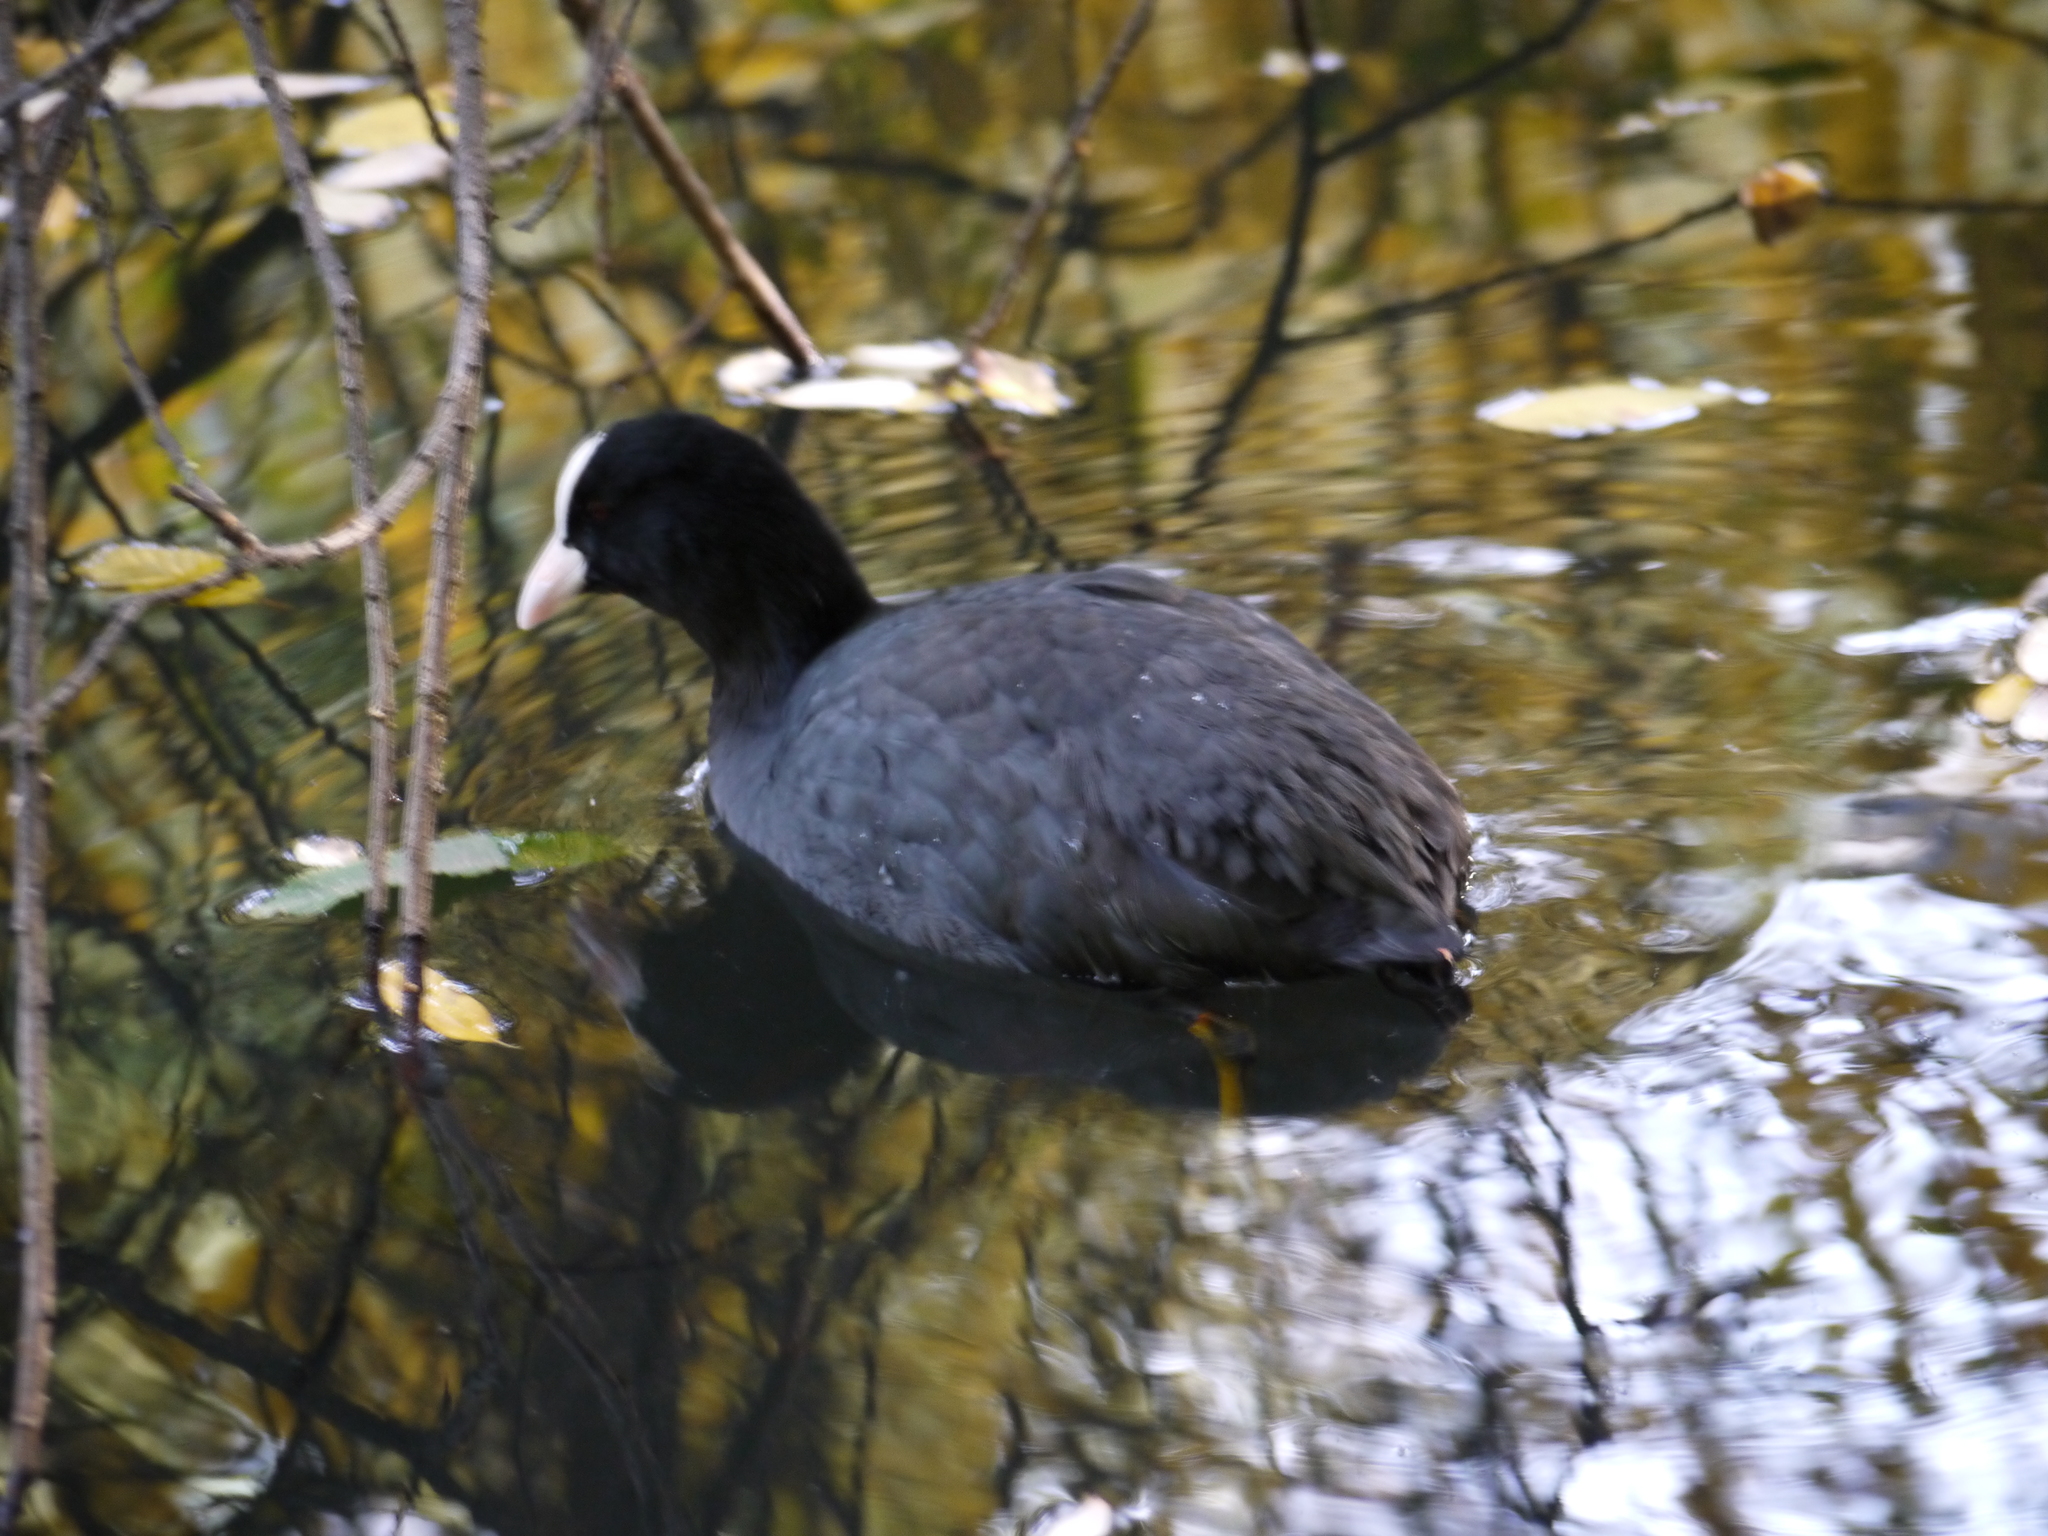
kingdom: Animalia
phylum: Chordata
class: Aves
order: Gruiformes
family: Rallidae
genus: Fulica
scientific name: Fulica atra
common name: Eurasian coot
